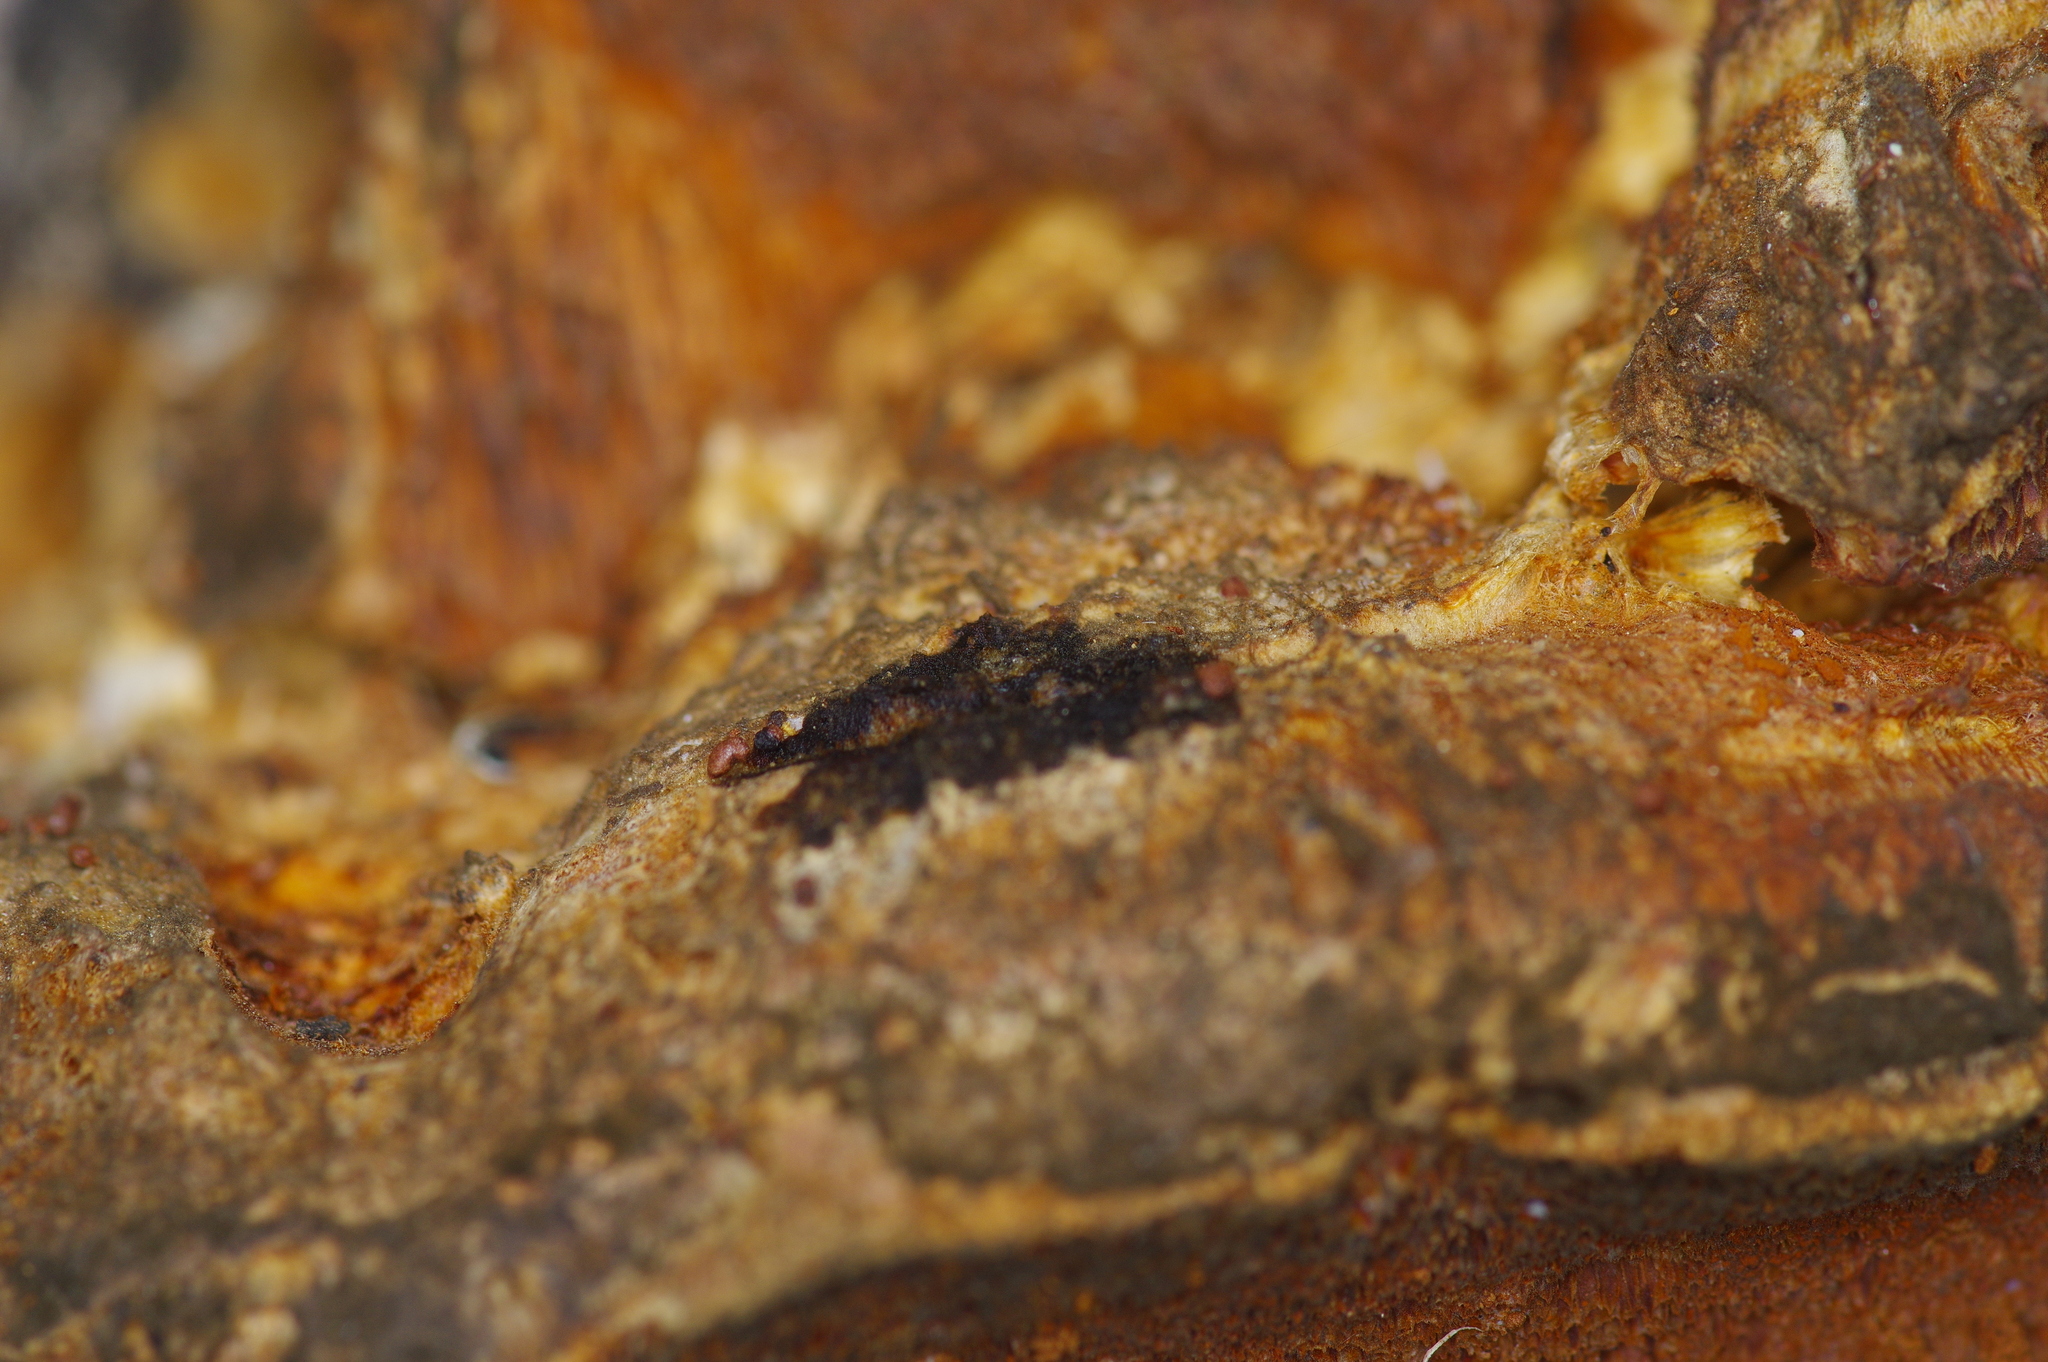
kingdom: Fungi
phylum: Basidiomycota
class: Agaricomycetes
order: Hymenochaetales
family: Hymenochaetaceae
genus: Phellinus
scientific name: Phellinus gilvus
